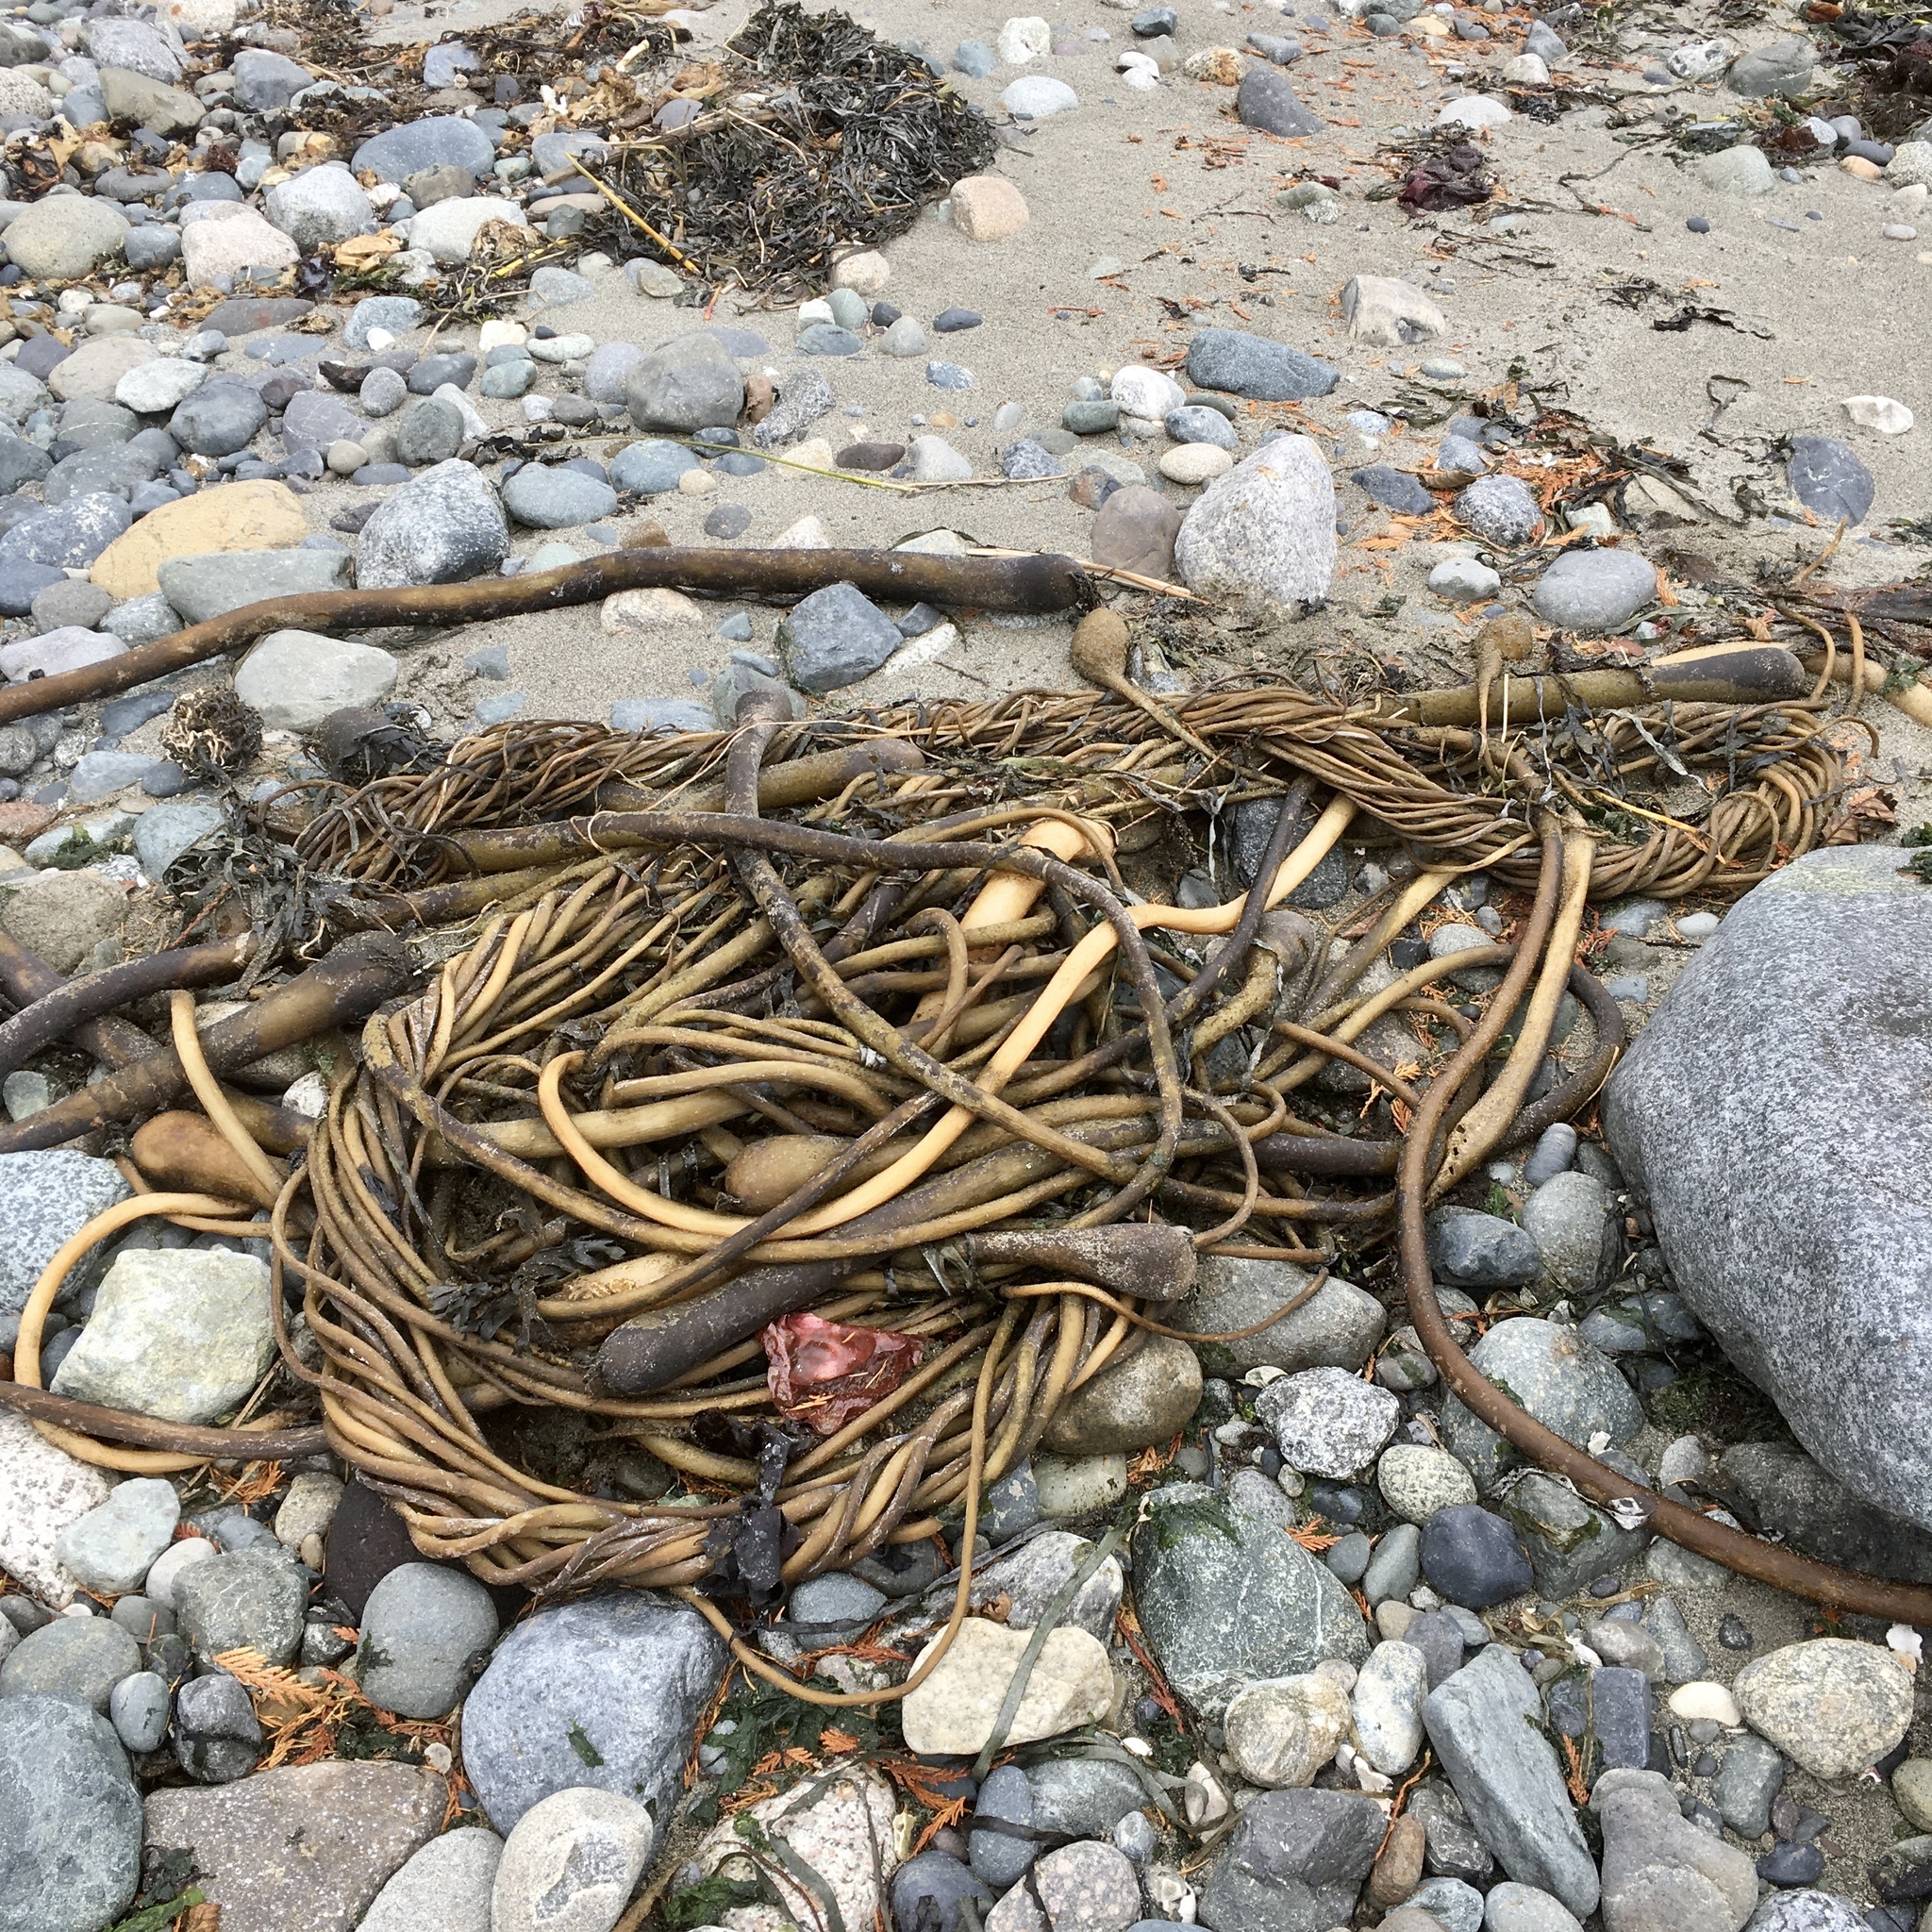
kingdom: Chromista
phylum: Ochrophyta
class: Phaeophyceae
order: Laminariales
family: Laminariaceae
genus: Nereocystis
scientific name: Nereocystis luetkeana
